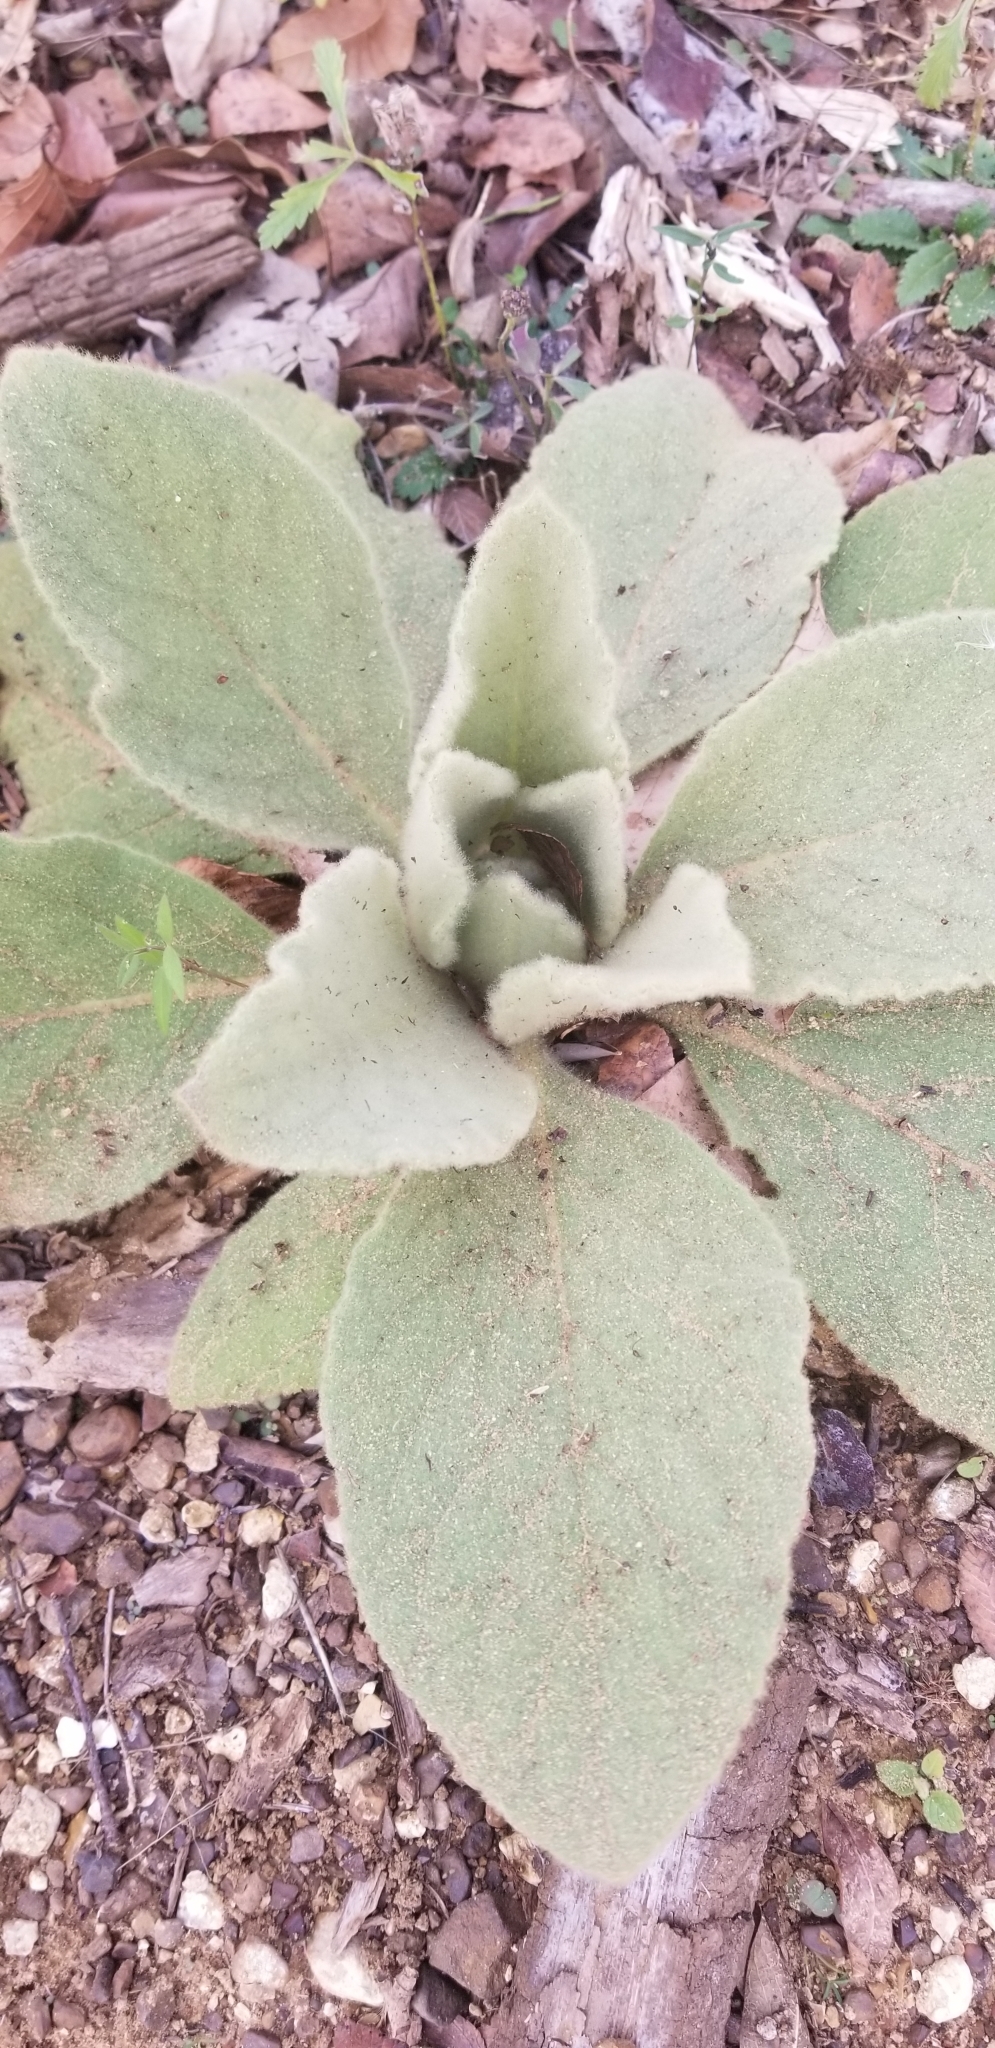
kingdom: Plantae
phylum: Tracheophyta
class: Magnoliopsida
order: Lamiales
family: Scrophulariaceae
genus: Verbascum
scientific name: Verbascum thapsus
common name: Common mullein
